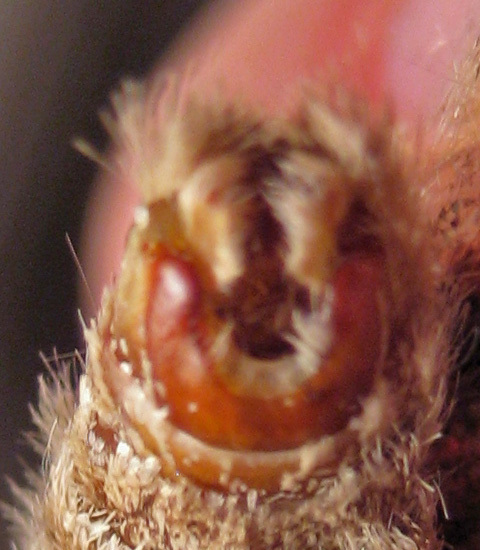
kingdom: Animalia
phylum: Arthropoda
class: Insecta
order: Lepidoptera
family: Notodontidae
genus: Symmerista
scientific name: Symmerista albifrons
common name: White-headed prominent
